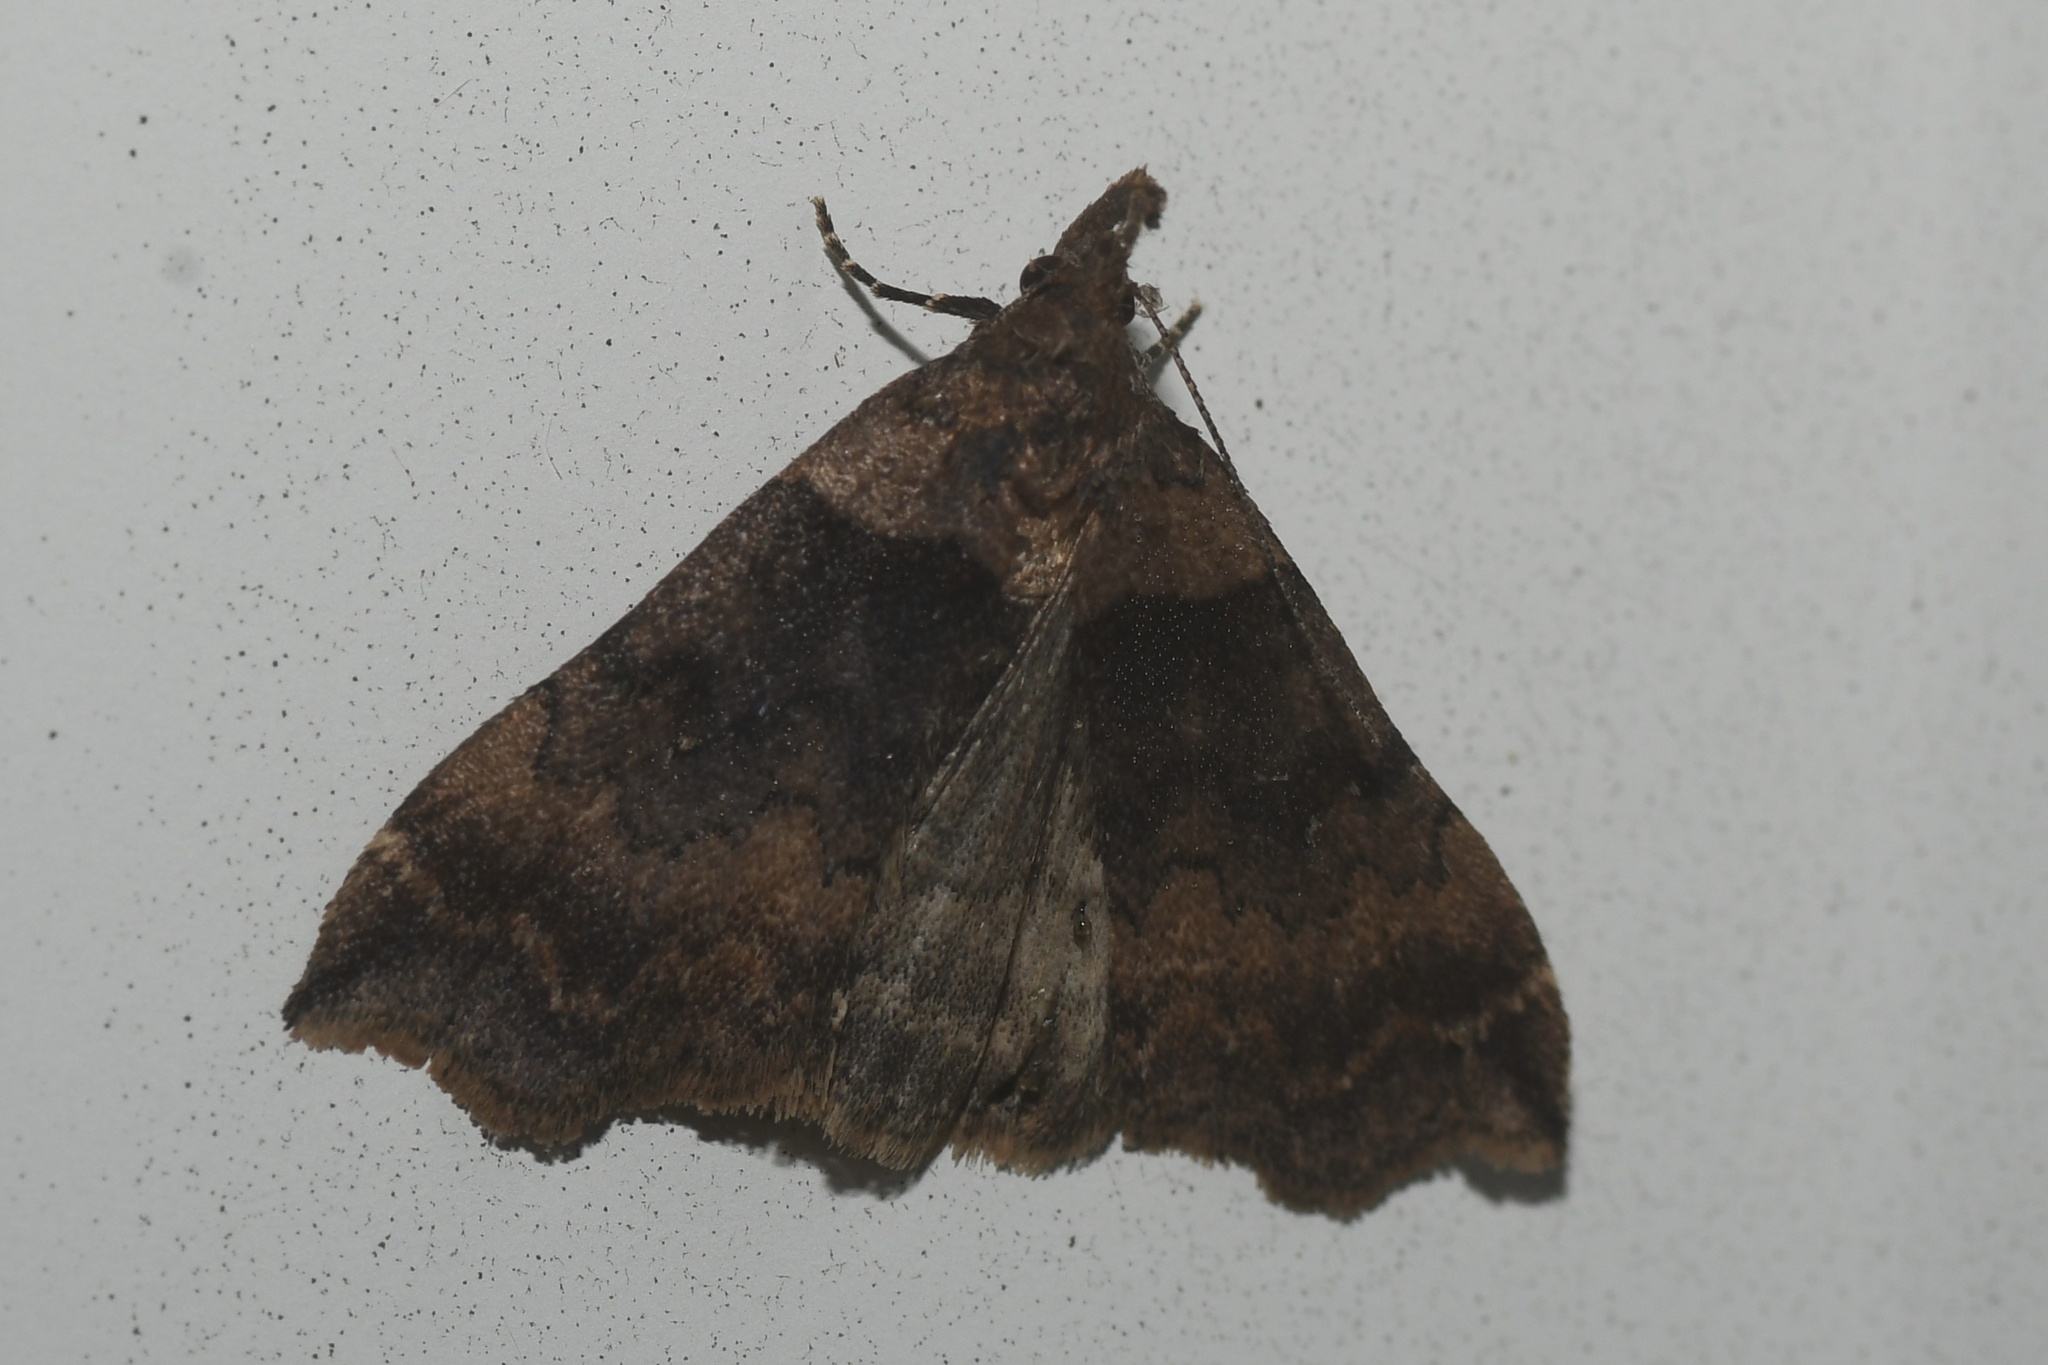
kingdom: Animalia
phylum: Arthropoda
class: Insecta
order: Lepidoptera
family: Erebidae
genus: Lascoria
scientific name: Lascoria ambigualis
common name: Ambiguous moth
